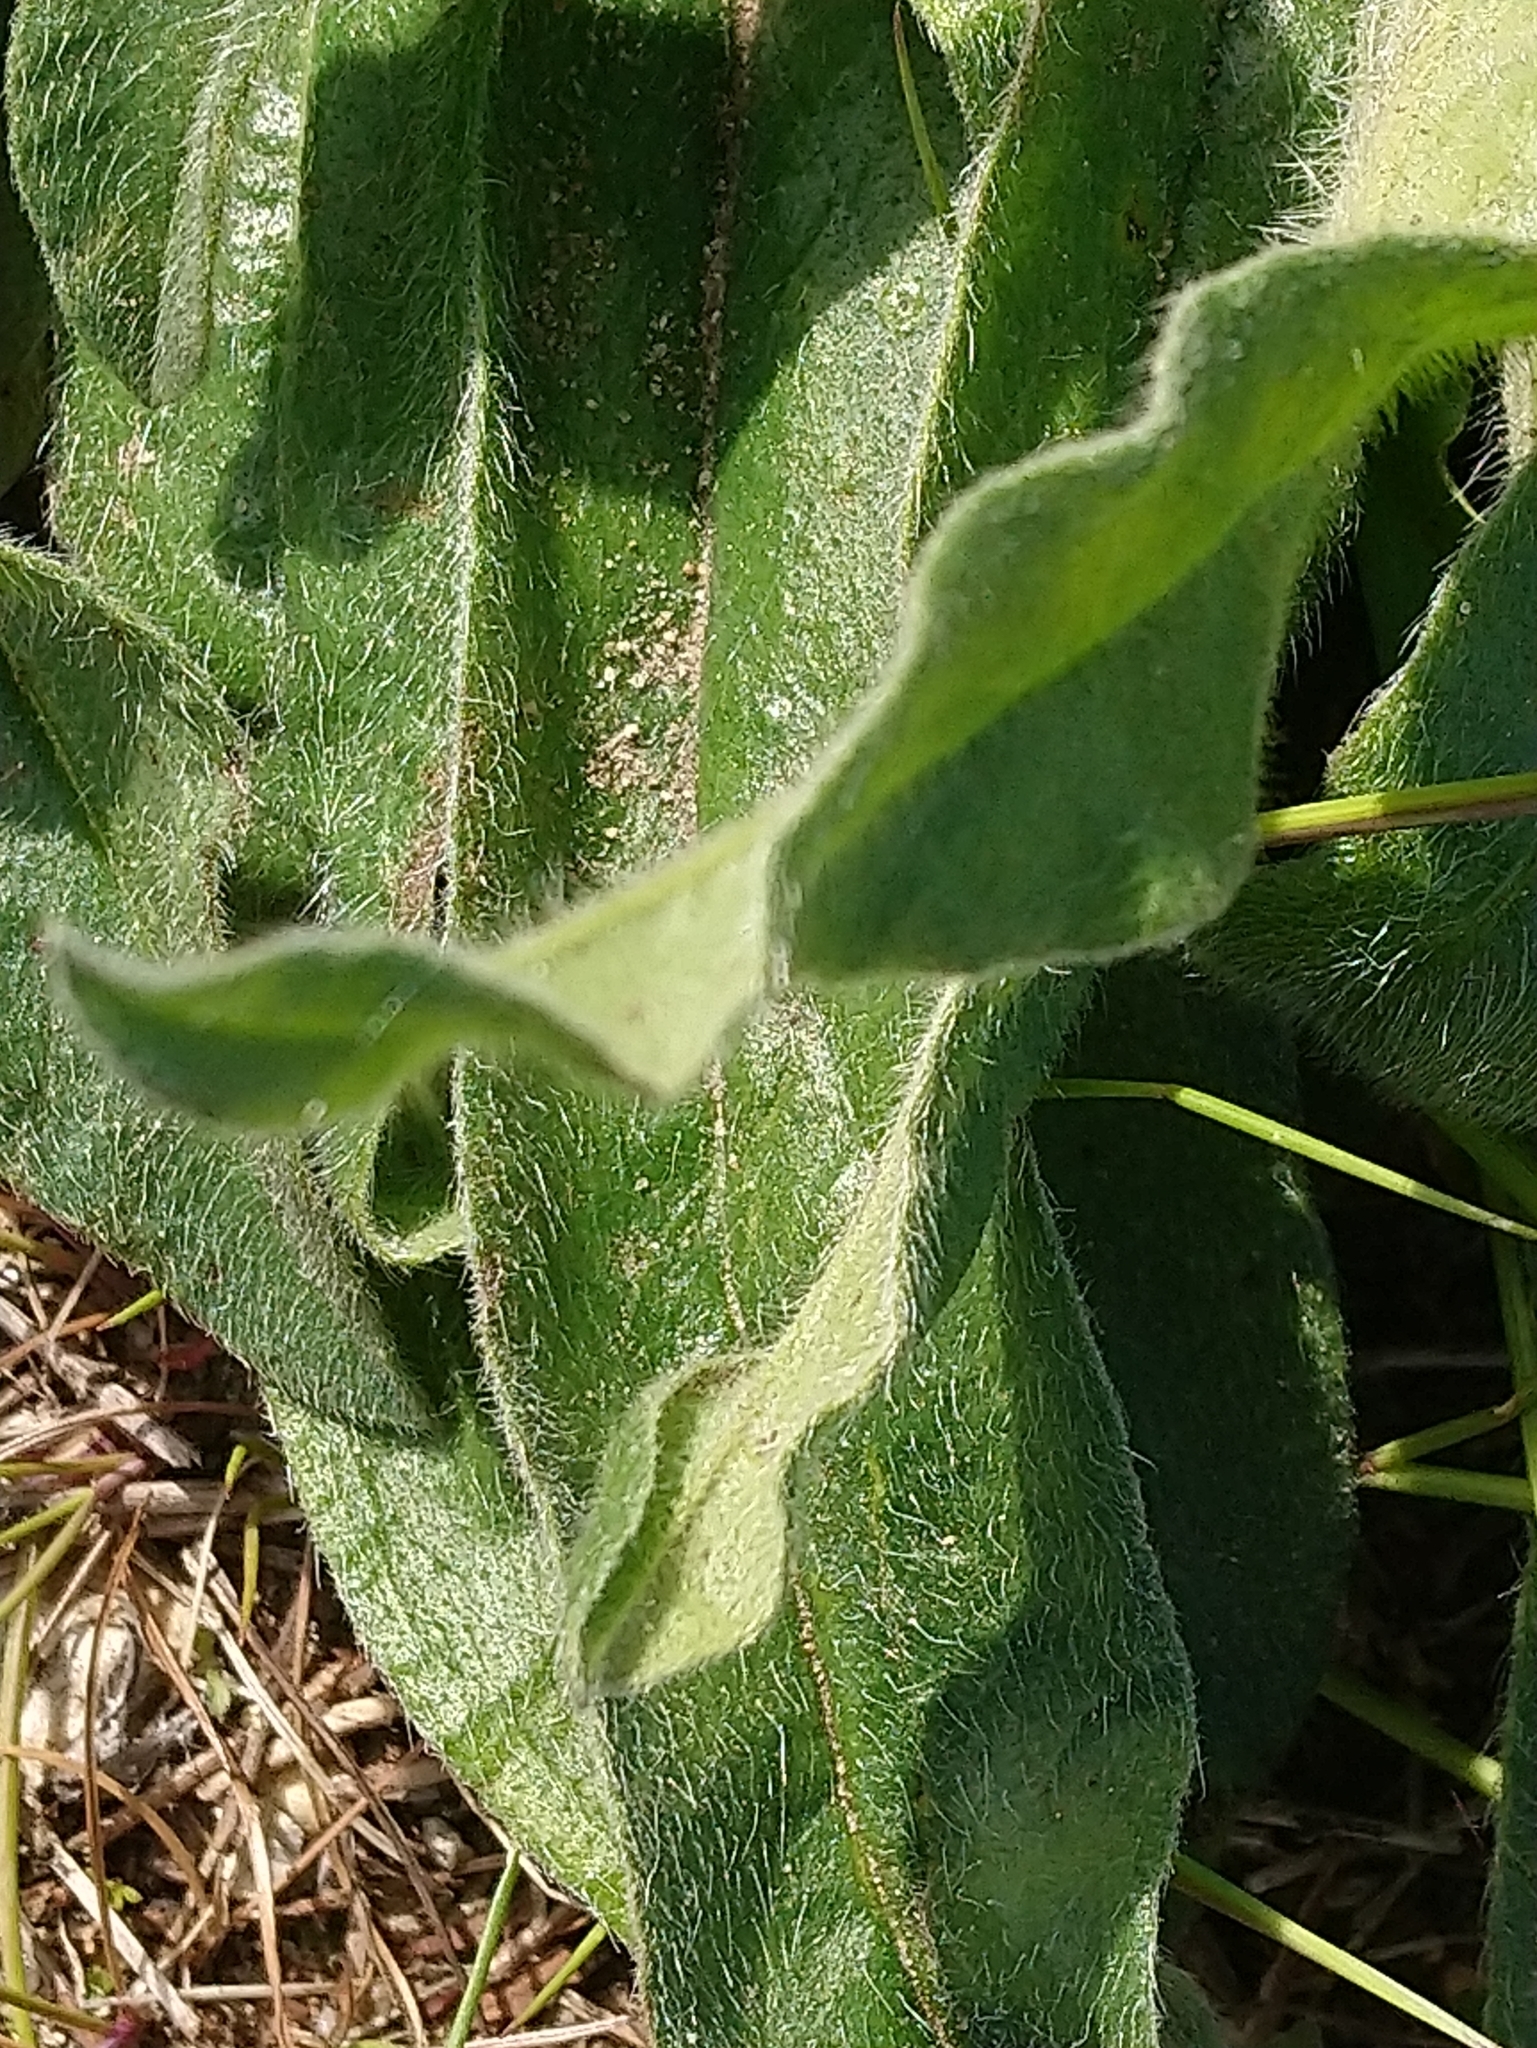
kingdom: Plantae
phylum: Tracheophyta
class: Magnoliopsida
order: Boraginales
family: Boraginaceae
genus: Echium
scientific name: Echium vulgare
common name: Common viper's bugloss
